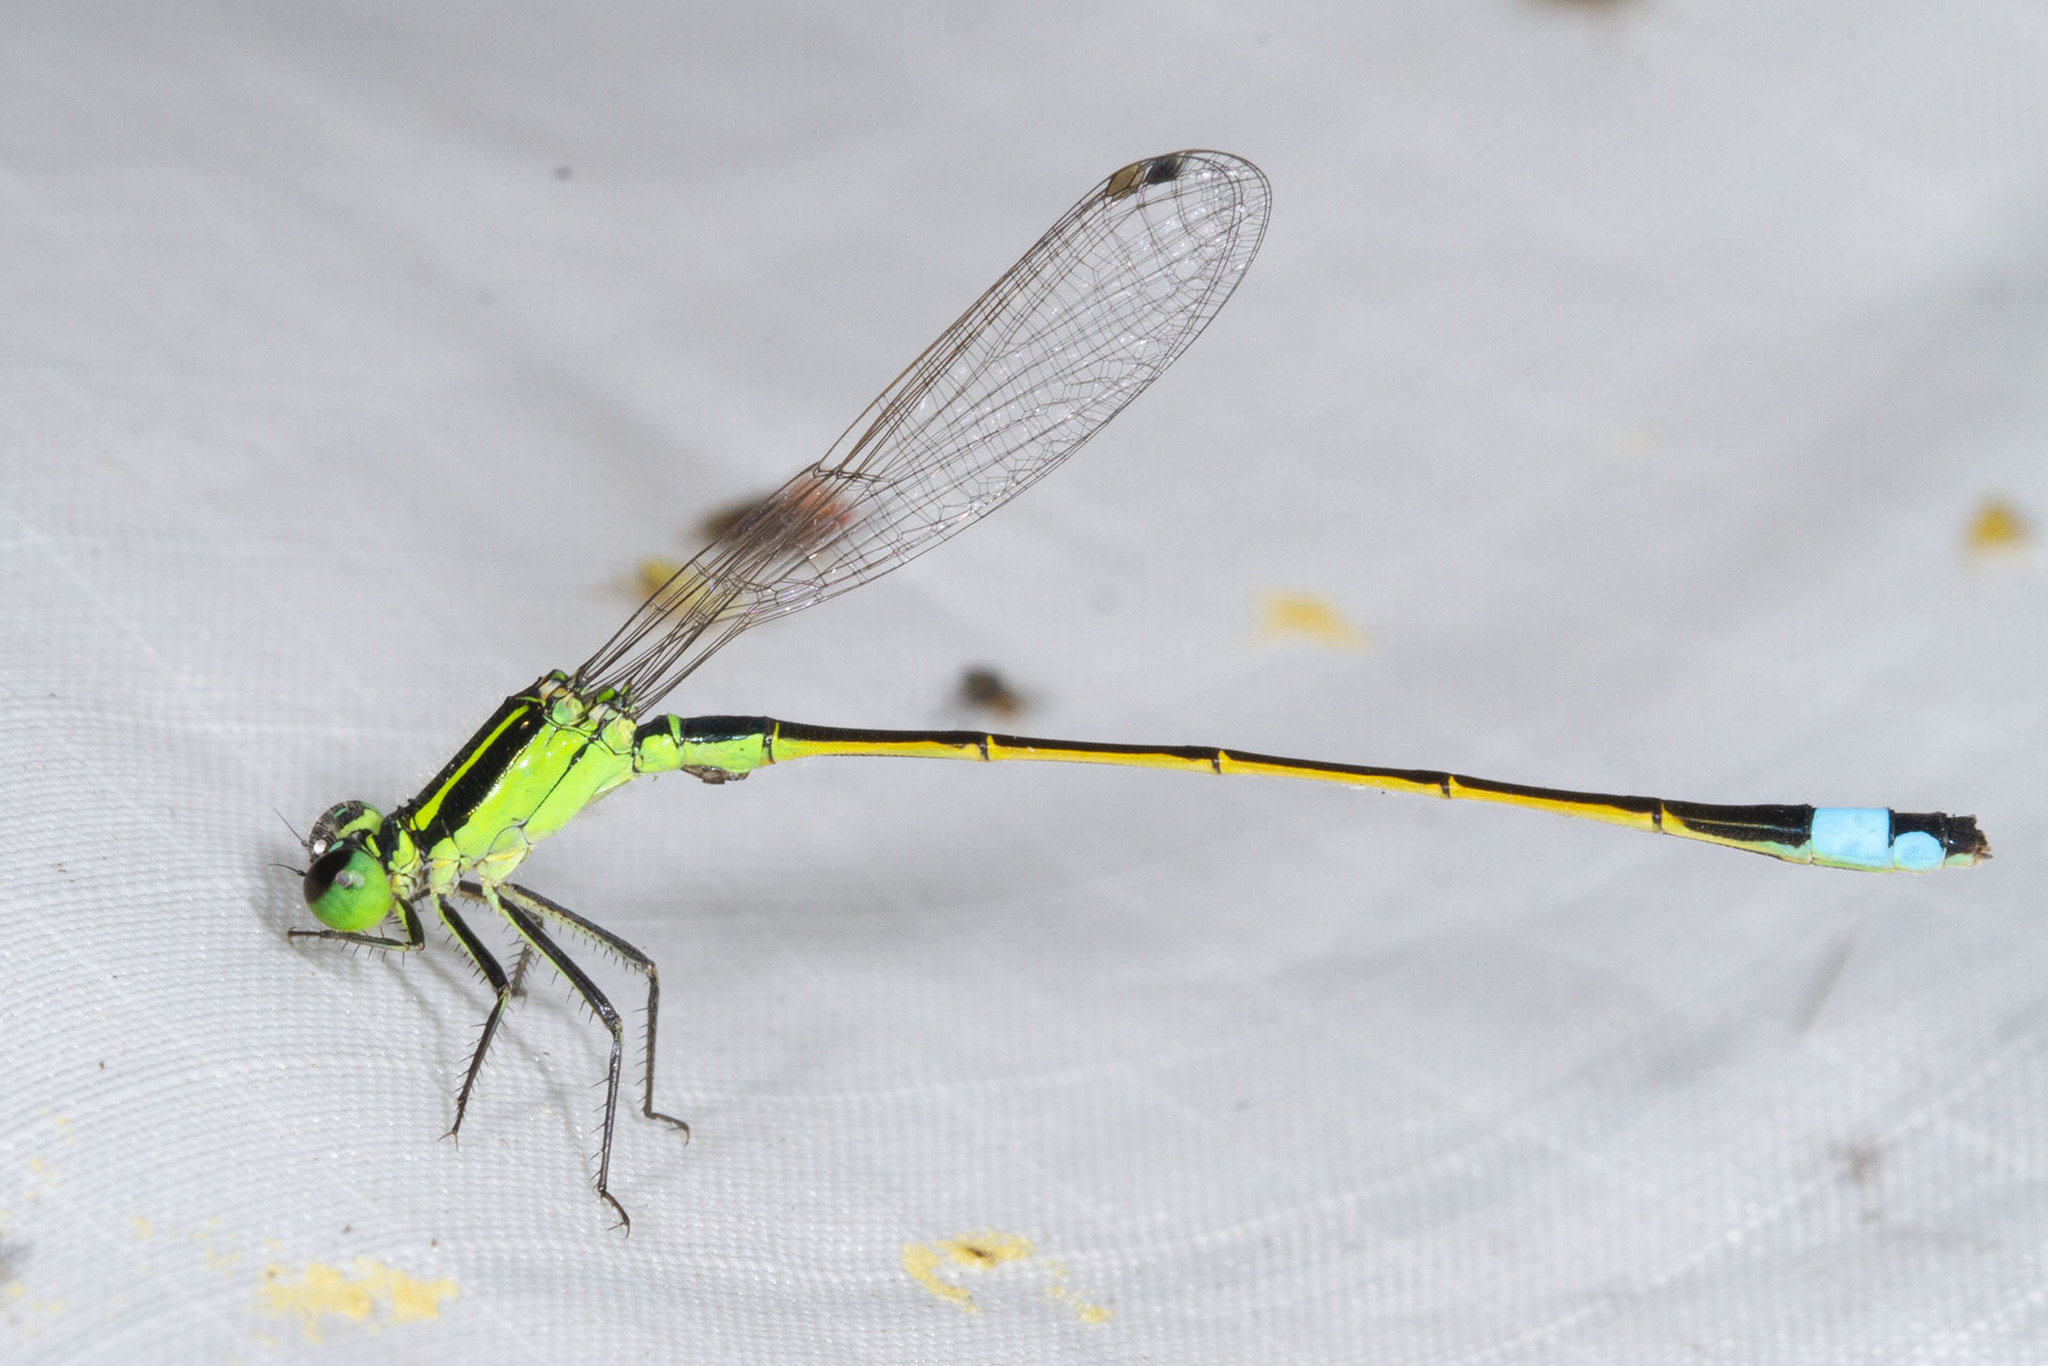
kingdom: Animalia
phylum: Arthropoda
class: Insecta
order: Odonata
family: Coenagrionidae
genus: Ischnura
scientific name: Ischnura ramburii
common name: Rambur's forktail
